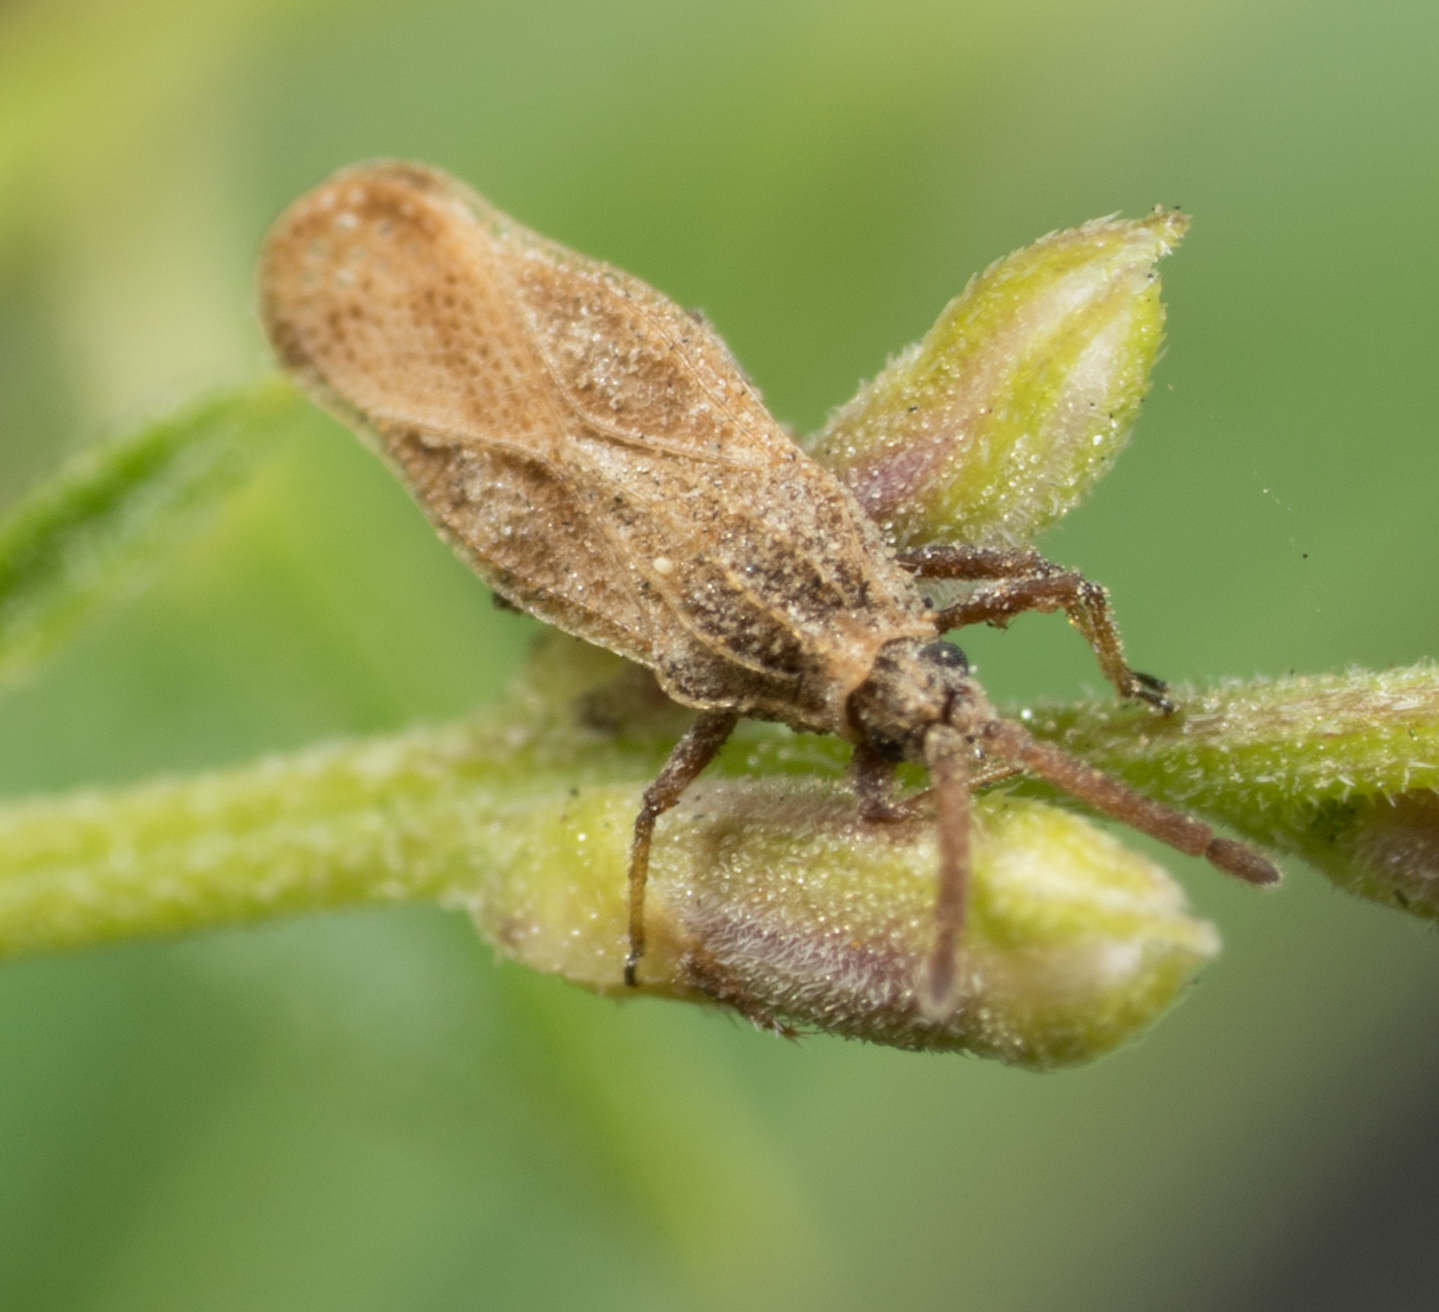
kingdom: Animalia
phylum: Arthropoda
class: Insecta
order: Hemiptera
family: Tingidae
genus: Teleonemia
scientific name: Teleonemia scrupulosa
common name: Lantana lace bug
